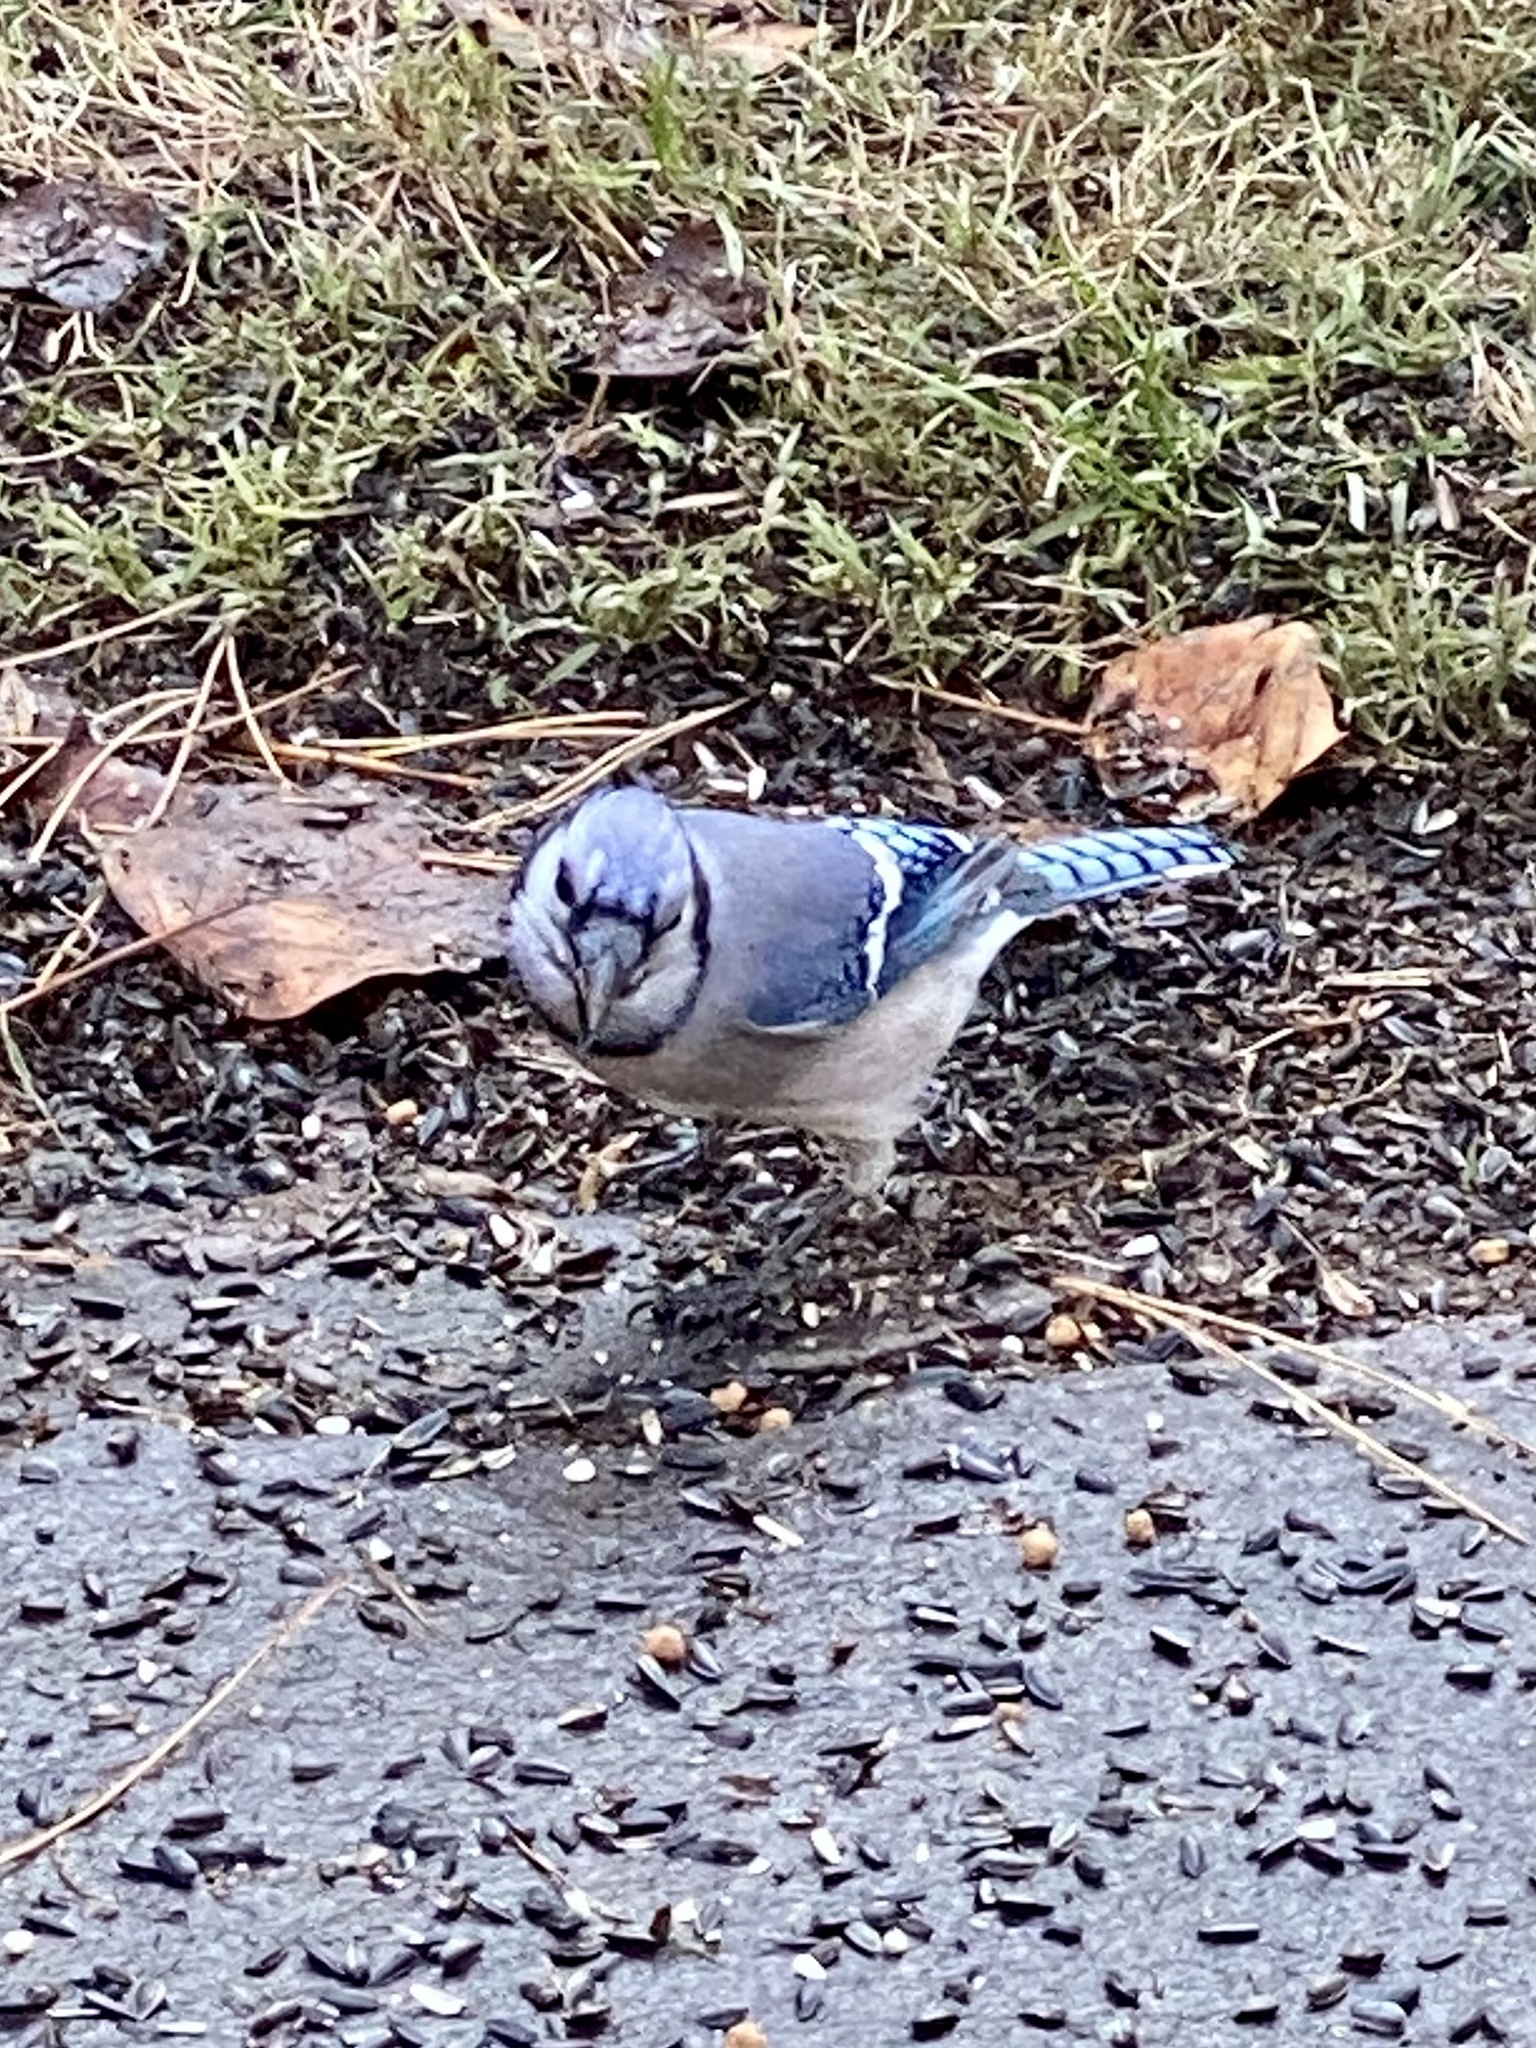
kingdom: Animalia
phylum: Chordata
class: Aves
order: Passeriformes
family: Corvidae
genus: Cyanocitta
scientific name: Cyanocitta cristata
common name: Blue jay
